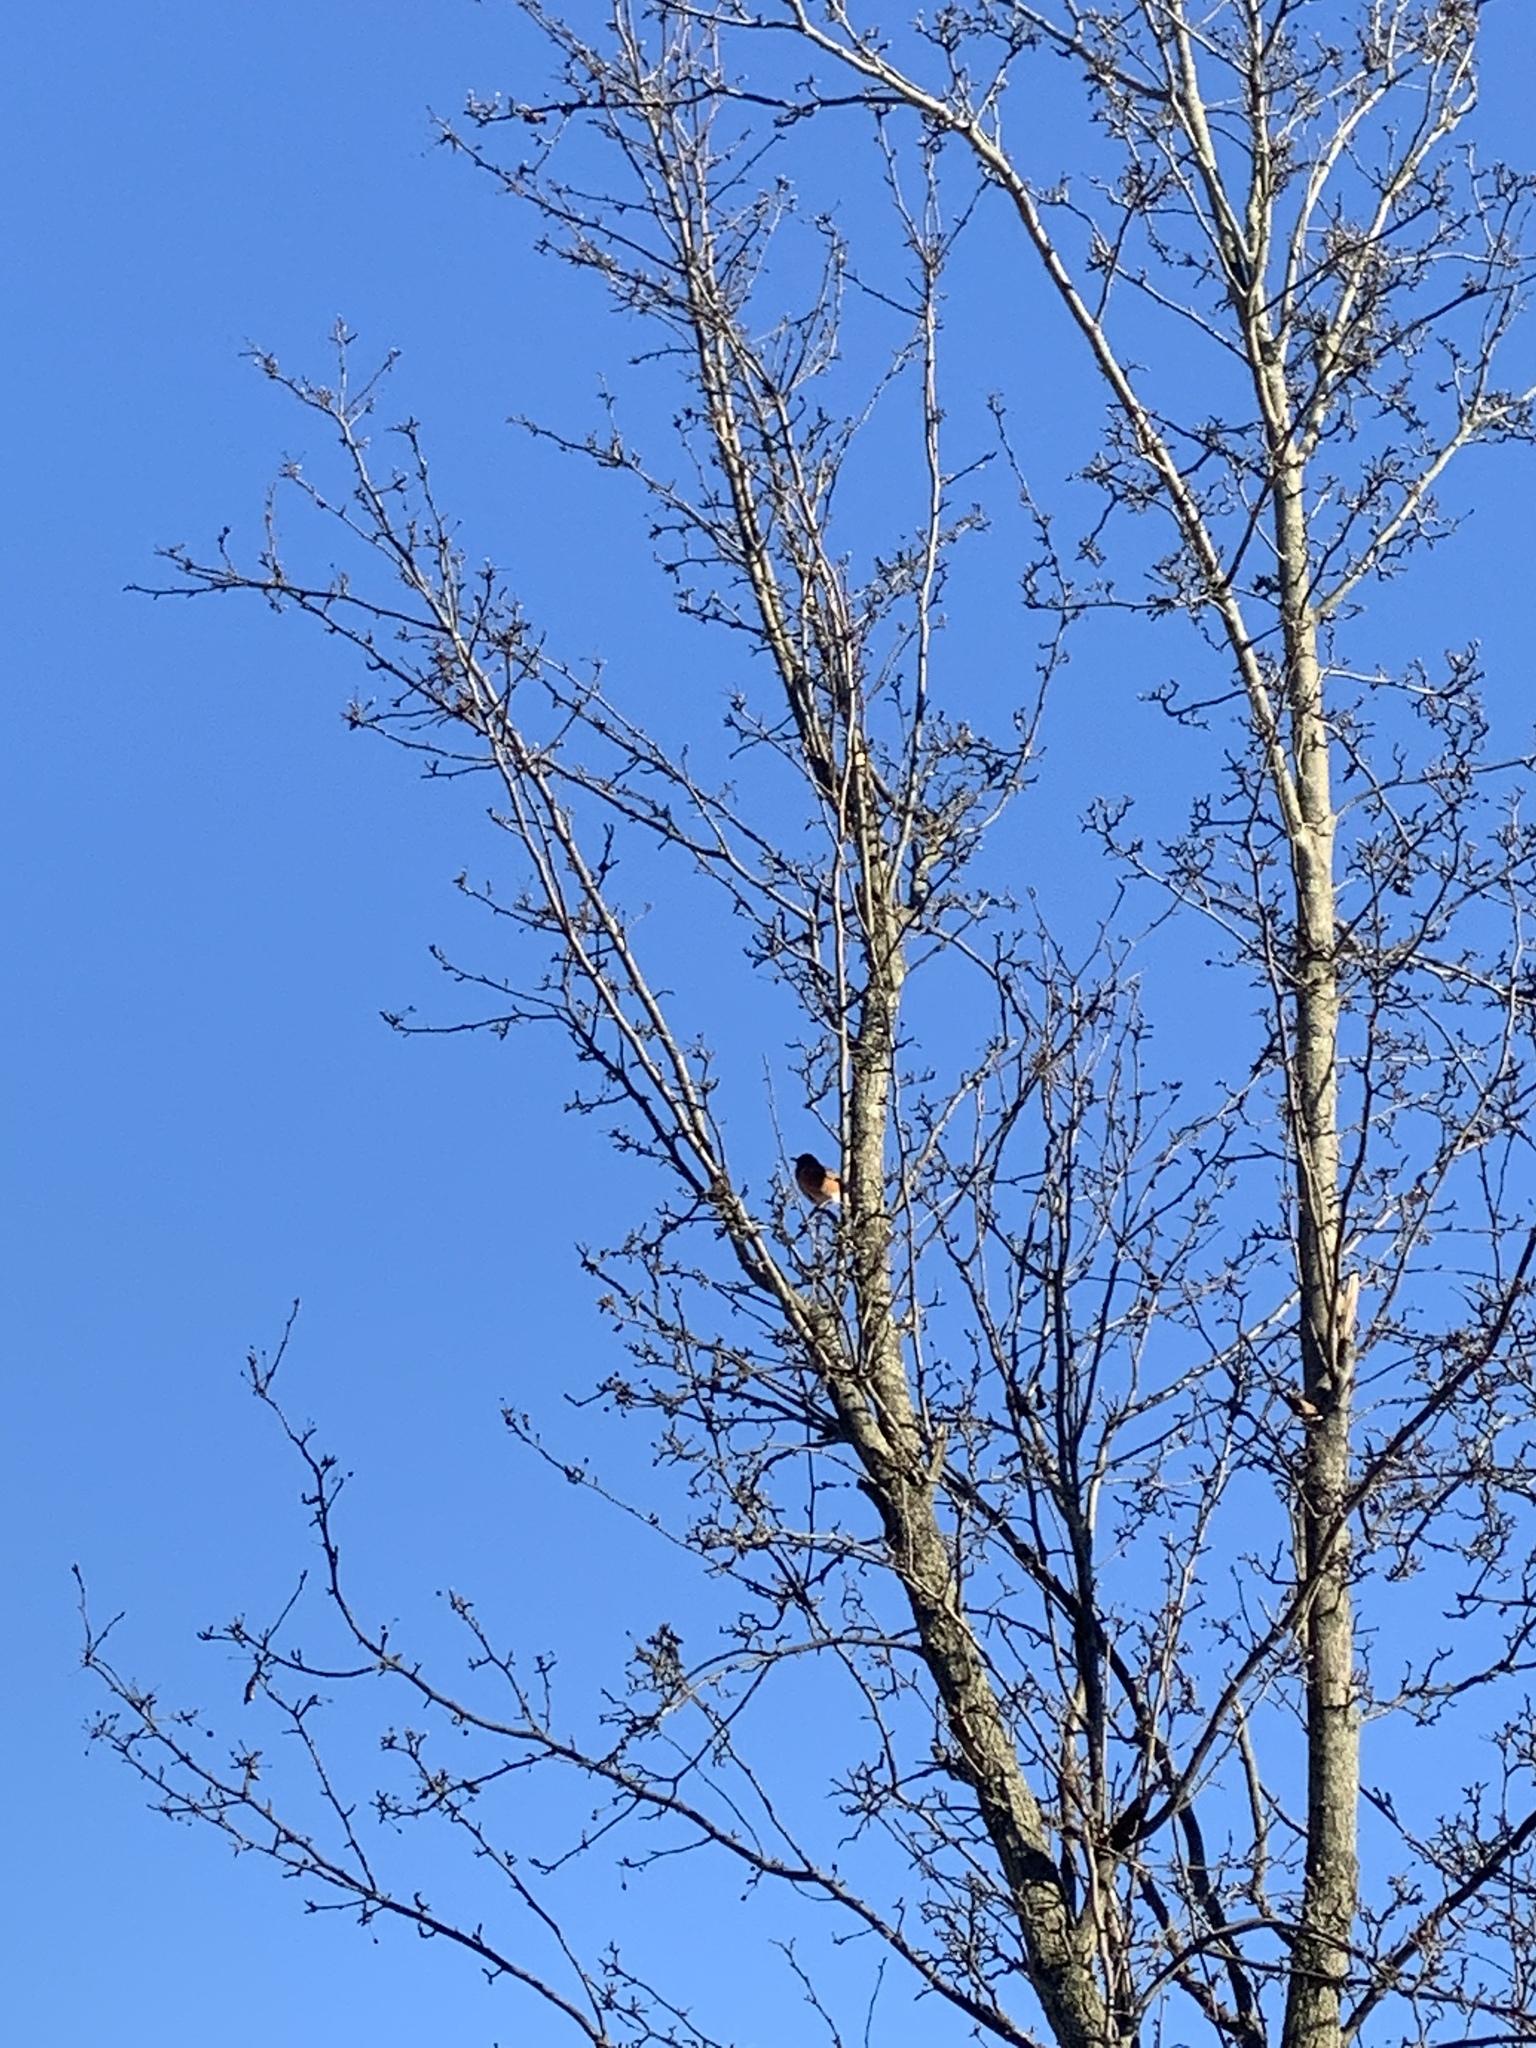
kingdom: Animalia
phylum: Chordata
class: Aves
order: Passeriformes
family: Turdidae
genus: Turdus
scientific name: Turdus migratorius
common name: American robin
